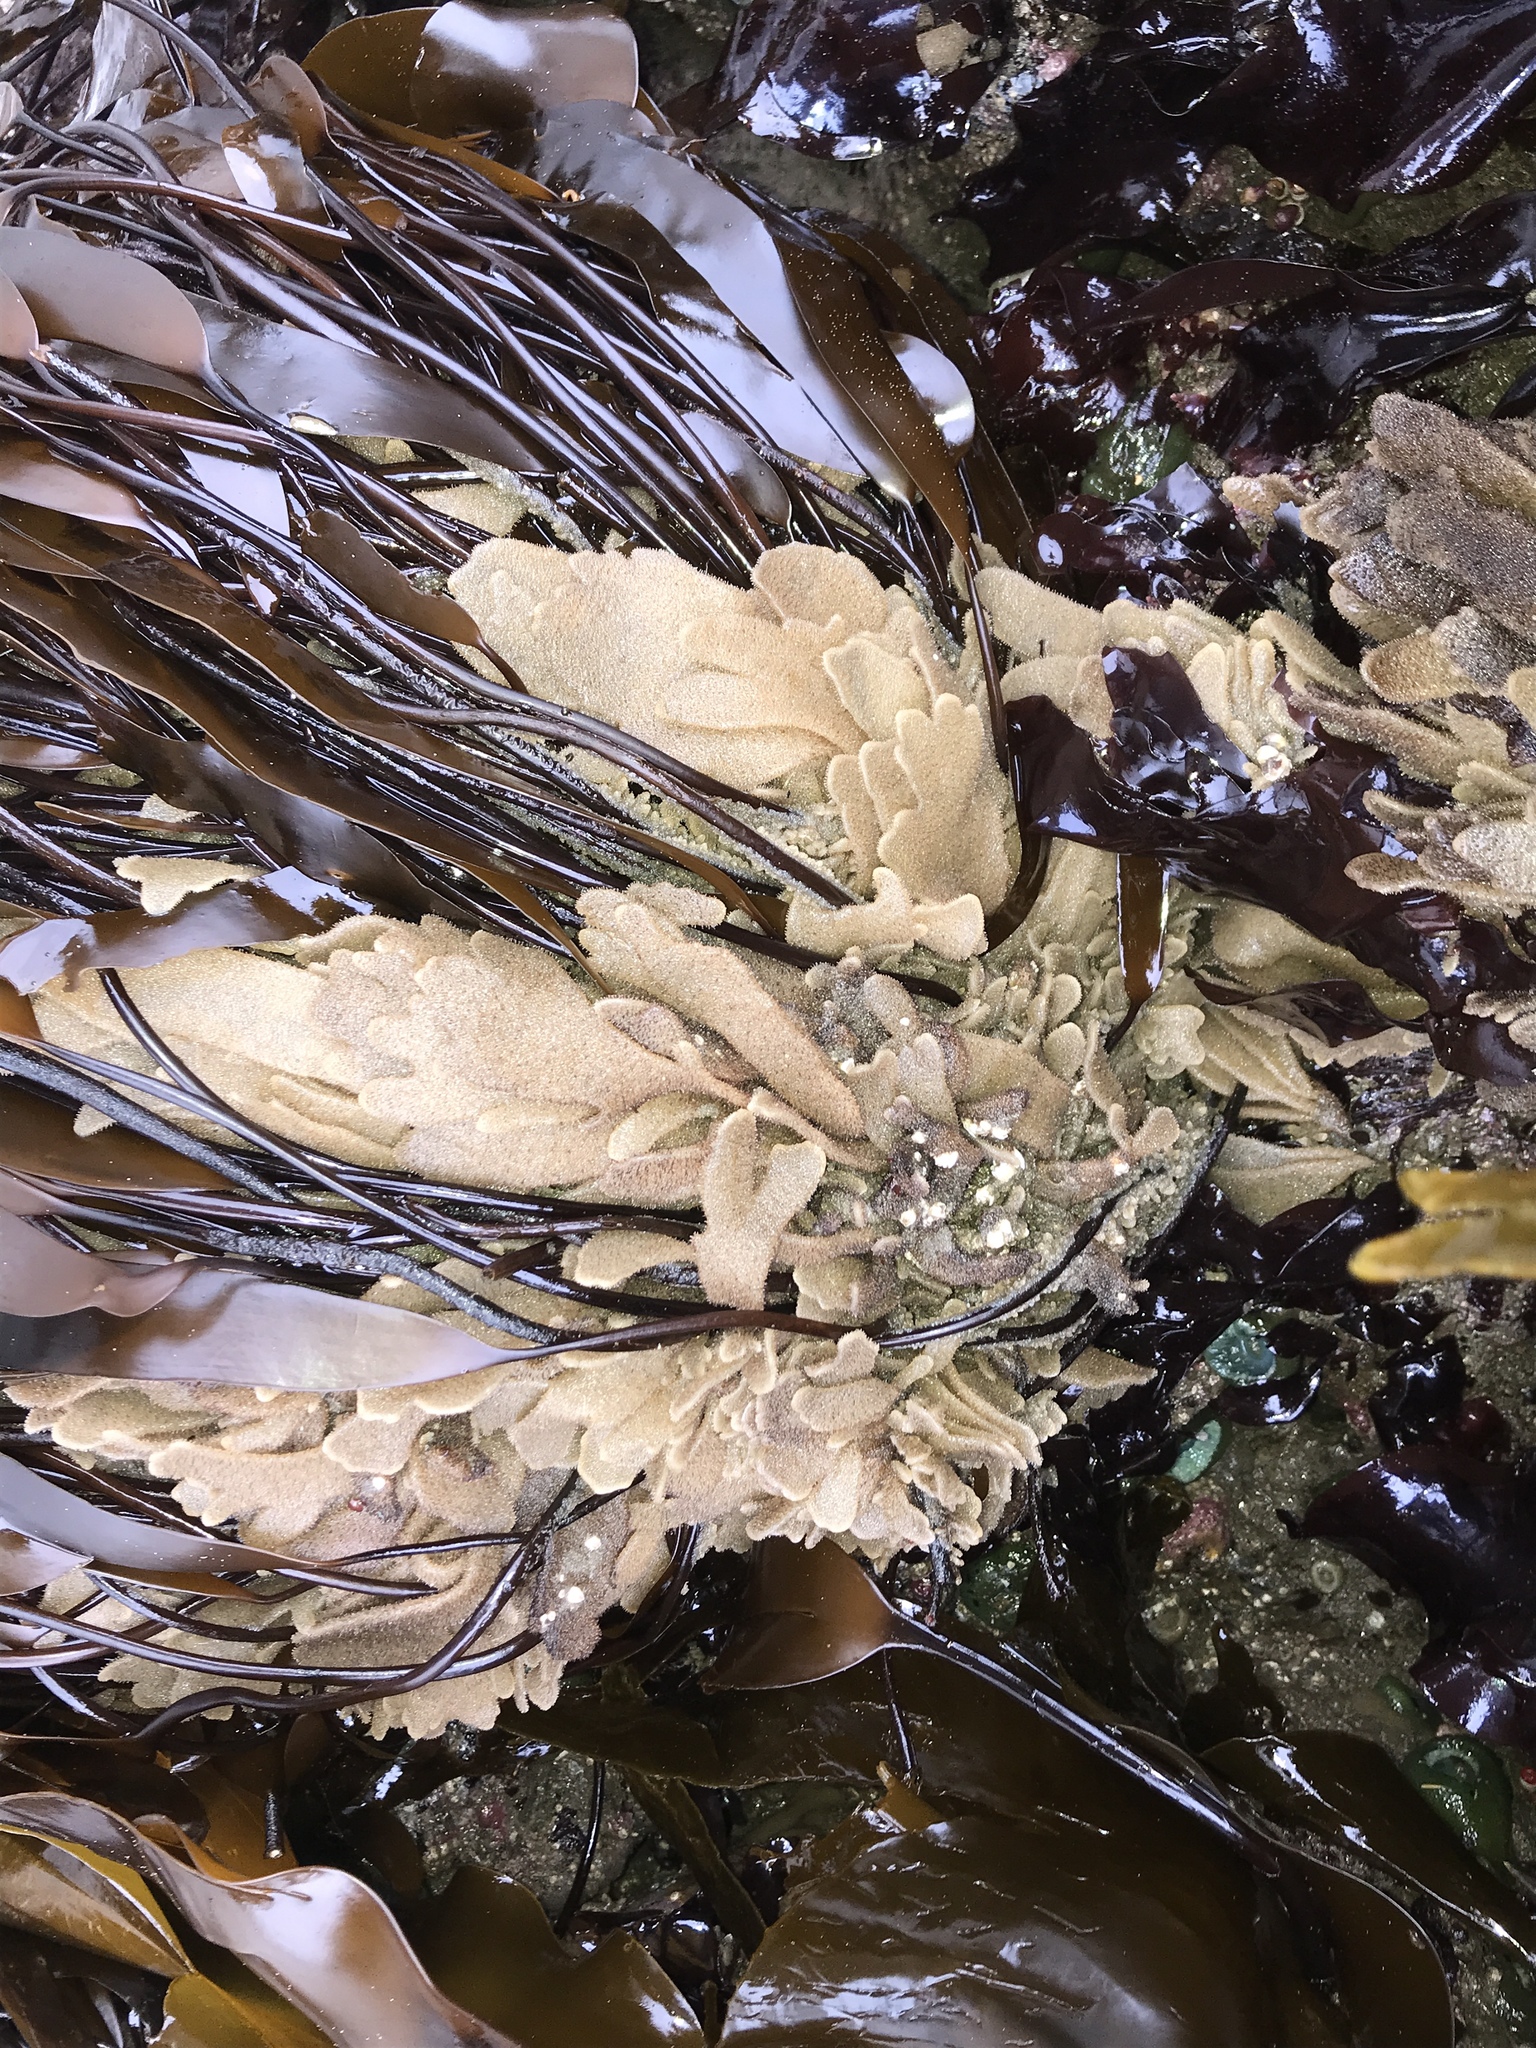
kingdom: Animalia
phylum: Bryozoa
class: Gymnolaemata
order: Ctenostomatida
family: Flustrellidridae
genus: Flustrellidra
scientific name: Flustrellidra corniculata
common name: Spiny leather bryozoan
